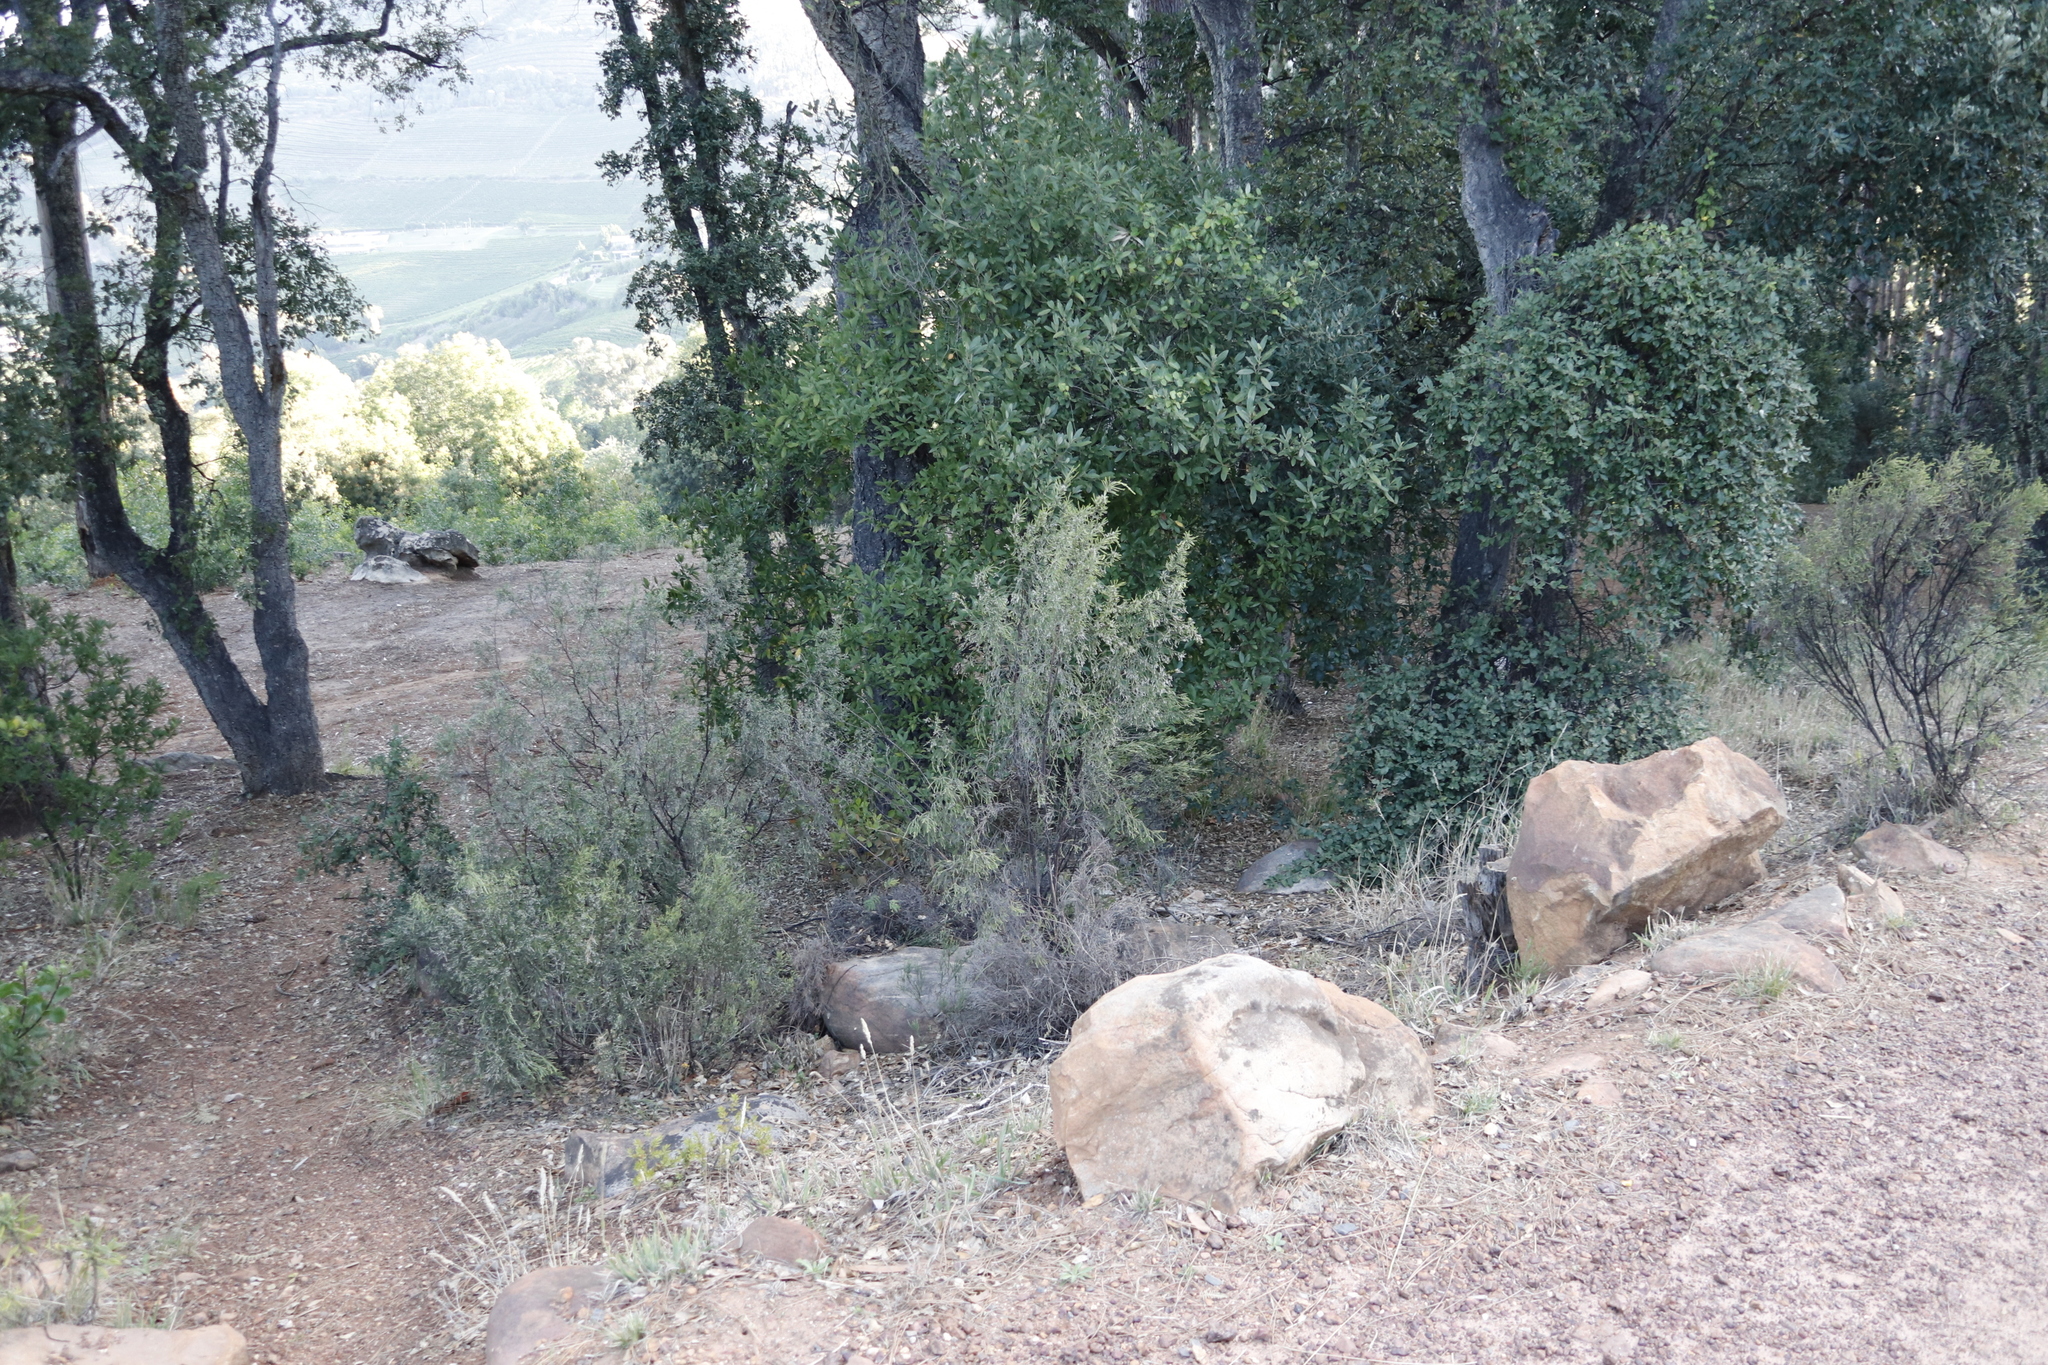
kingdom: Plantae
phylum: Tracheophyta
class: Magnoliopsida
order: Fagales
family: Fagaceae
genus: Quercus
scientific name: Quercus suber
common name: Cork oak
